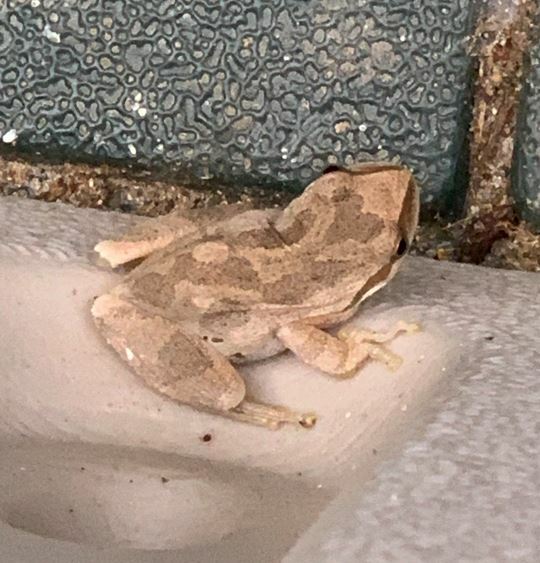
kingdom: Animalia
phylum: Chordata
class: Amphibia
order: Anura
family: Hylidae
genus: Pseudacris
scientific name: Pseudacris regilla
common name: Pacific chorus frog
